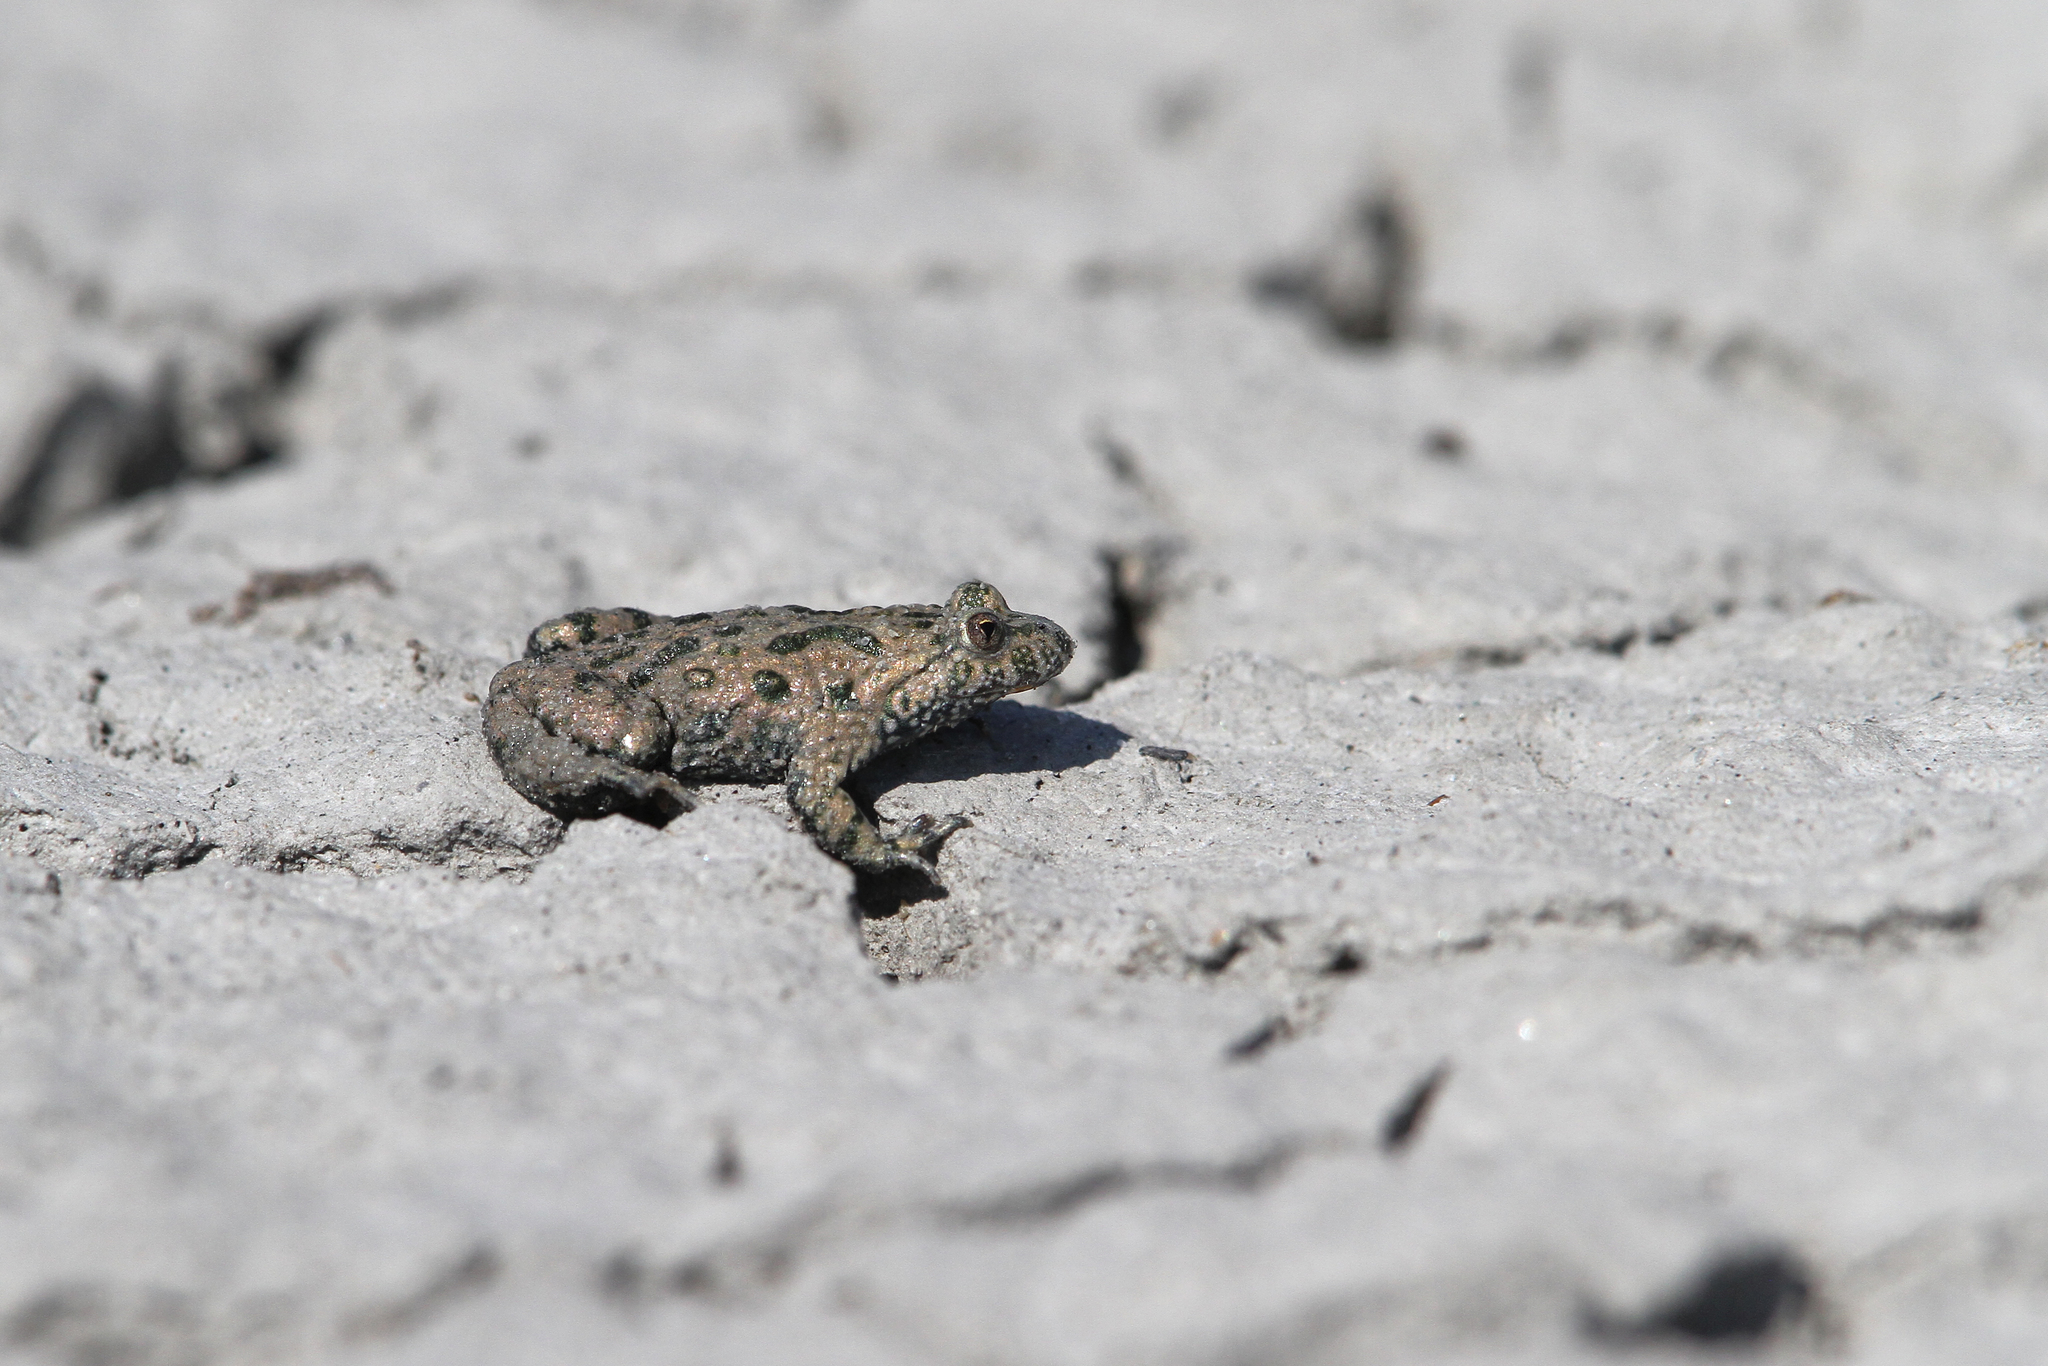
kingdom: Animalia
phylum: Chordata
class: Amphibia
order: Anura
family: Bombinatoridae
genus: Bombina
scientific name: Bombina bombina
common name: Fire-bellied toad
